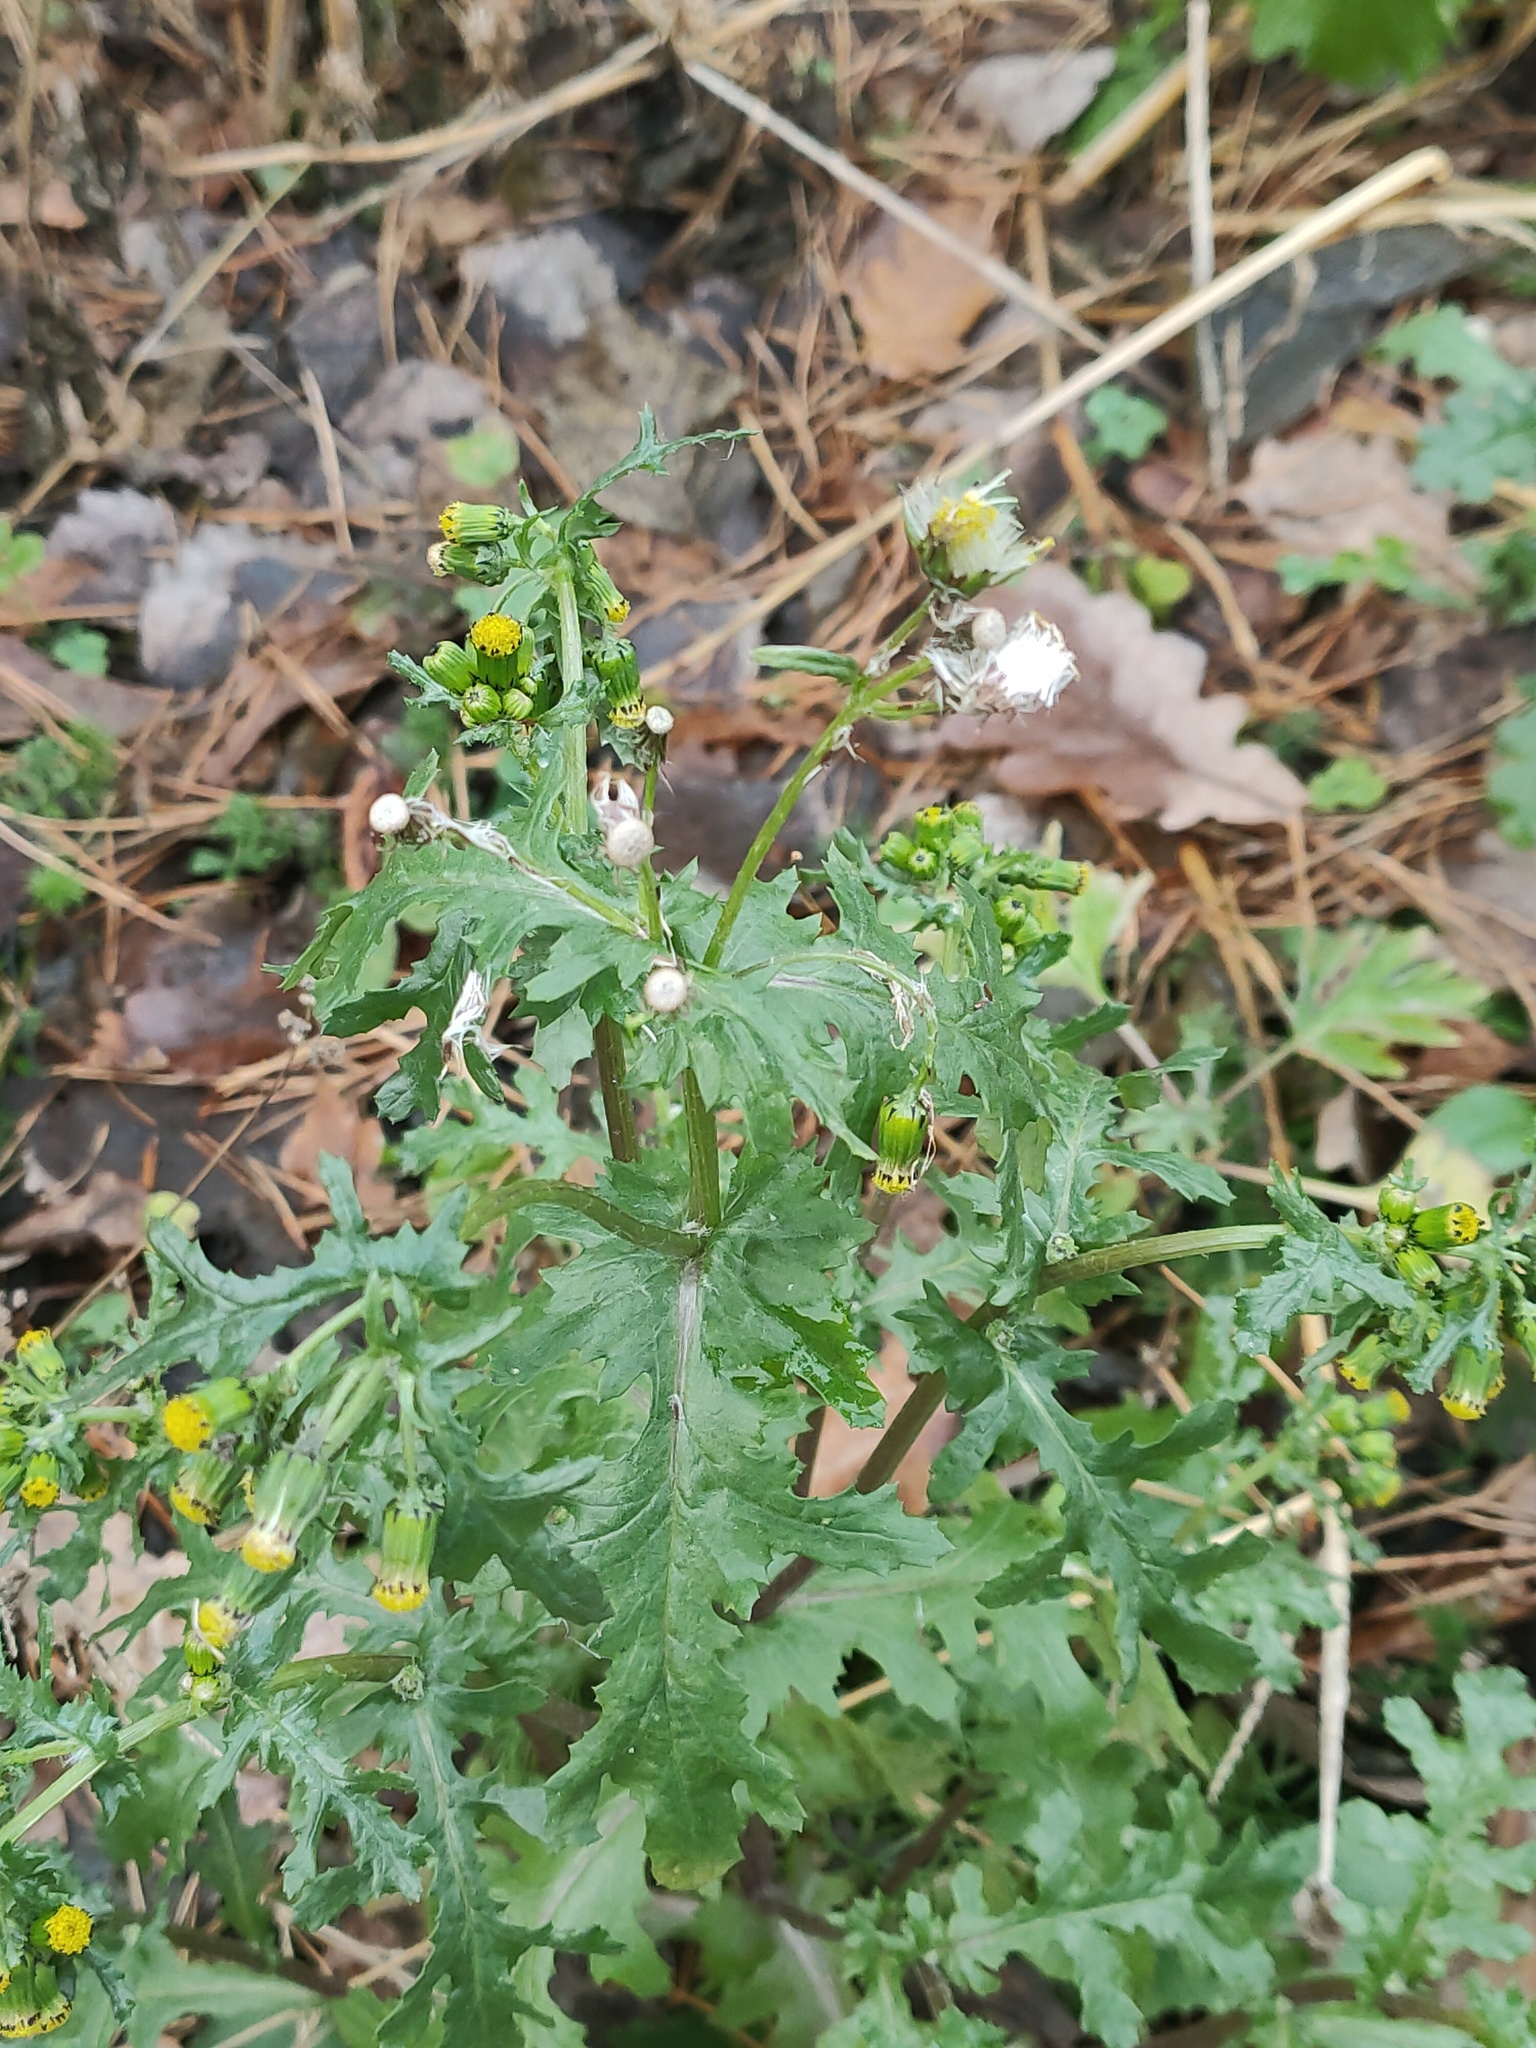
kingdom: Plantae
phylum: Tracheophyta
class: Magnoliopsida
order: Asterales
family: Asteraceae
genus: Senecio
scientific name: Senecio vulgaris
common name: Old-man-in-the-spring
